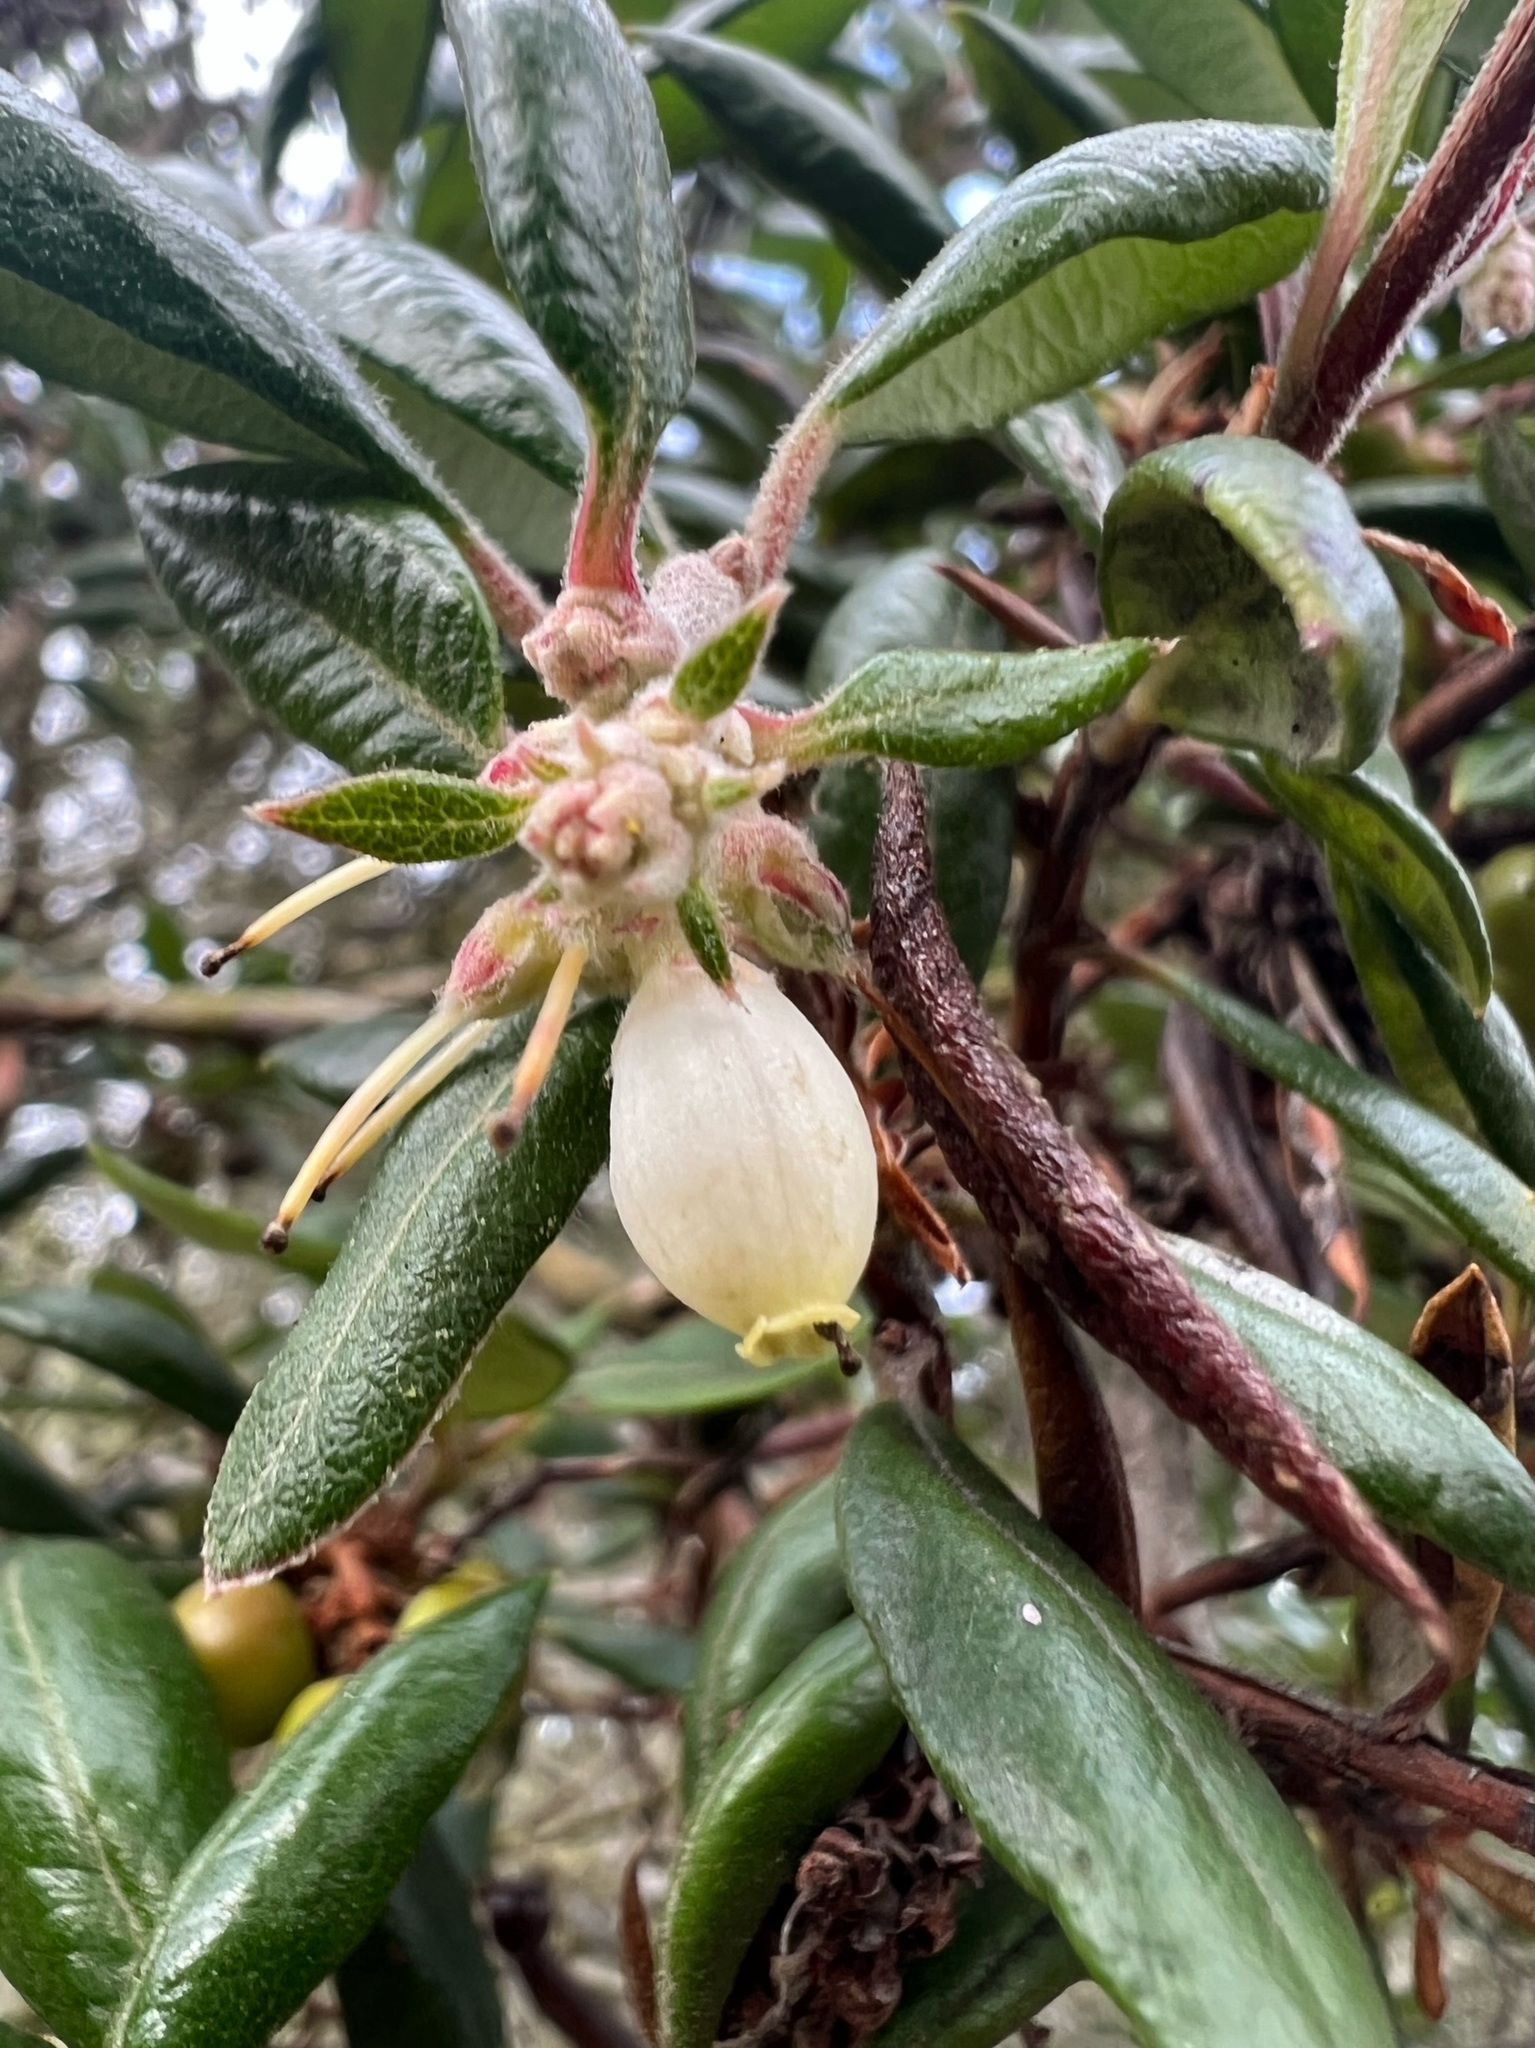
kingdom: Plantae
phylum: Tracheophyta
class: Magnoliopsida
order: Ericales
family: Ericaceae
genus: Arctostaphylos
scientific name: Arctostaphylos bicolor
